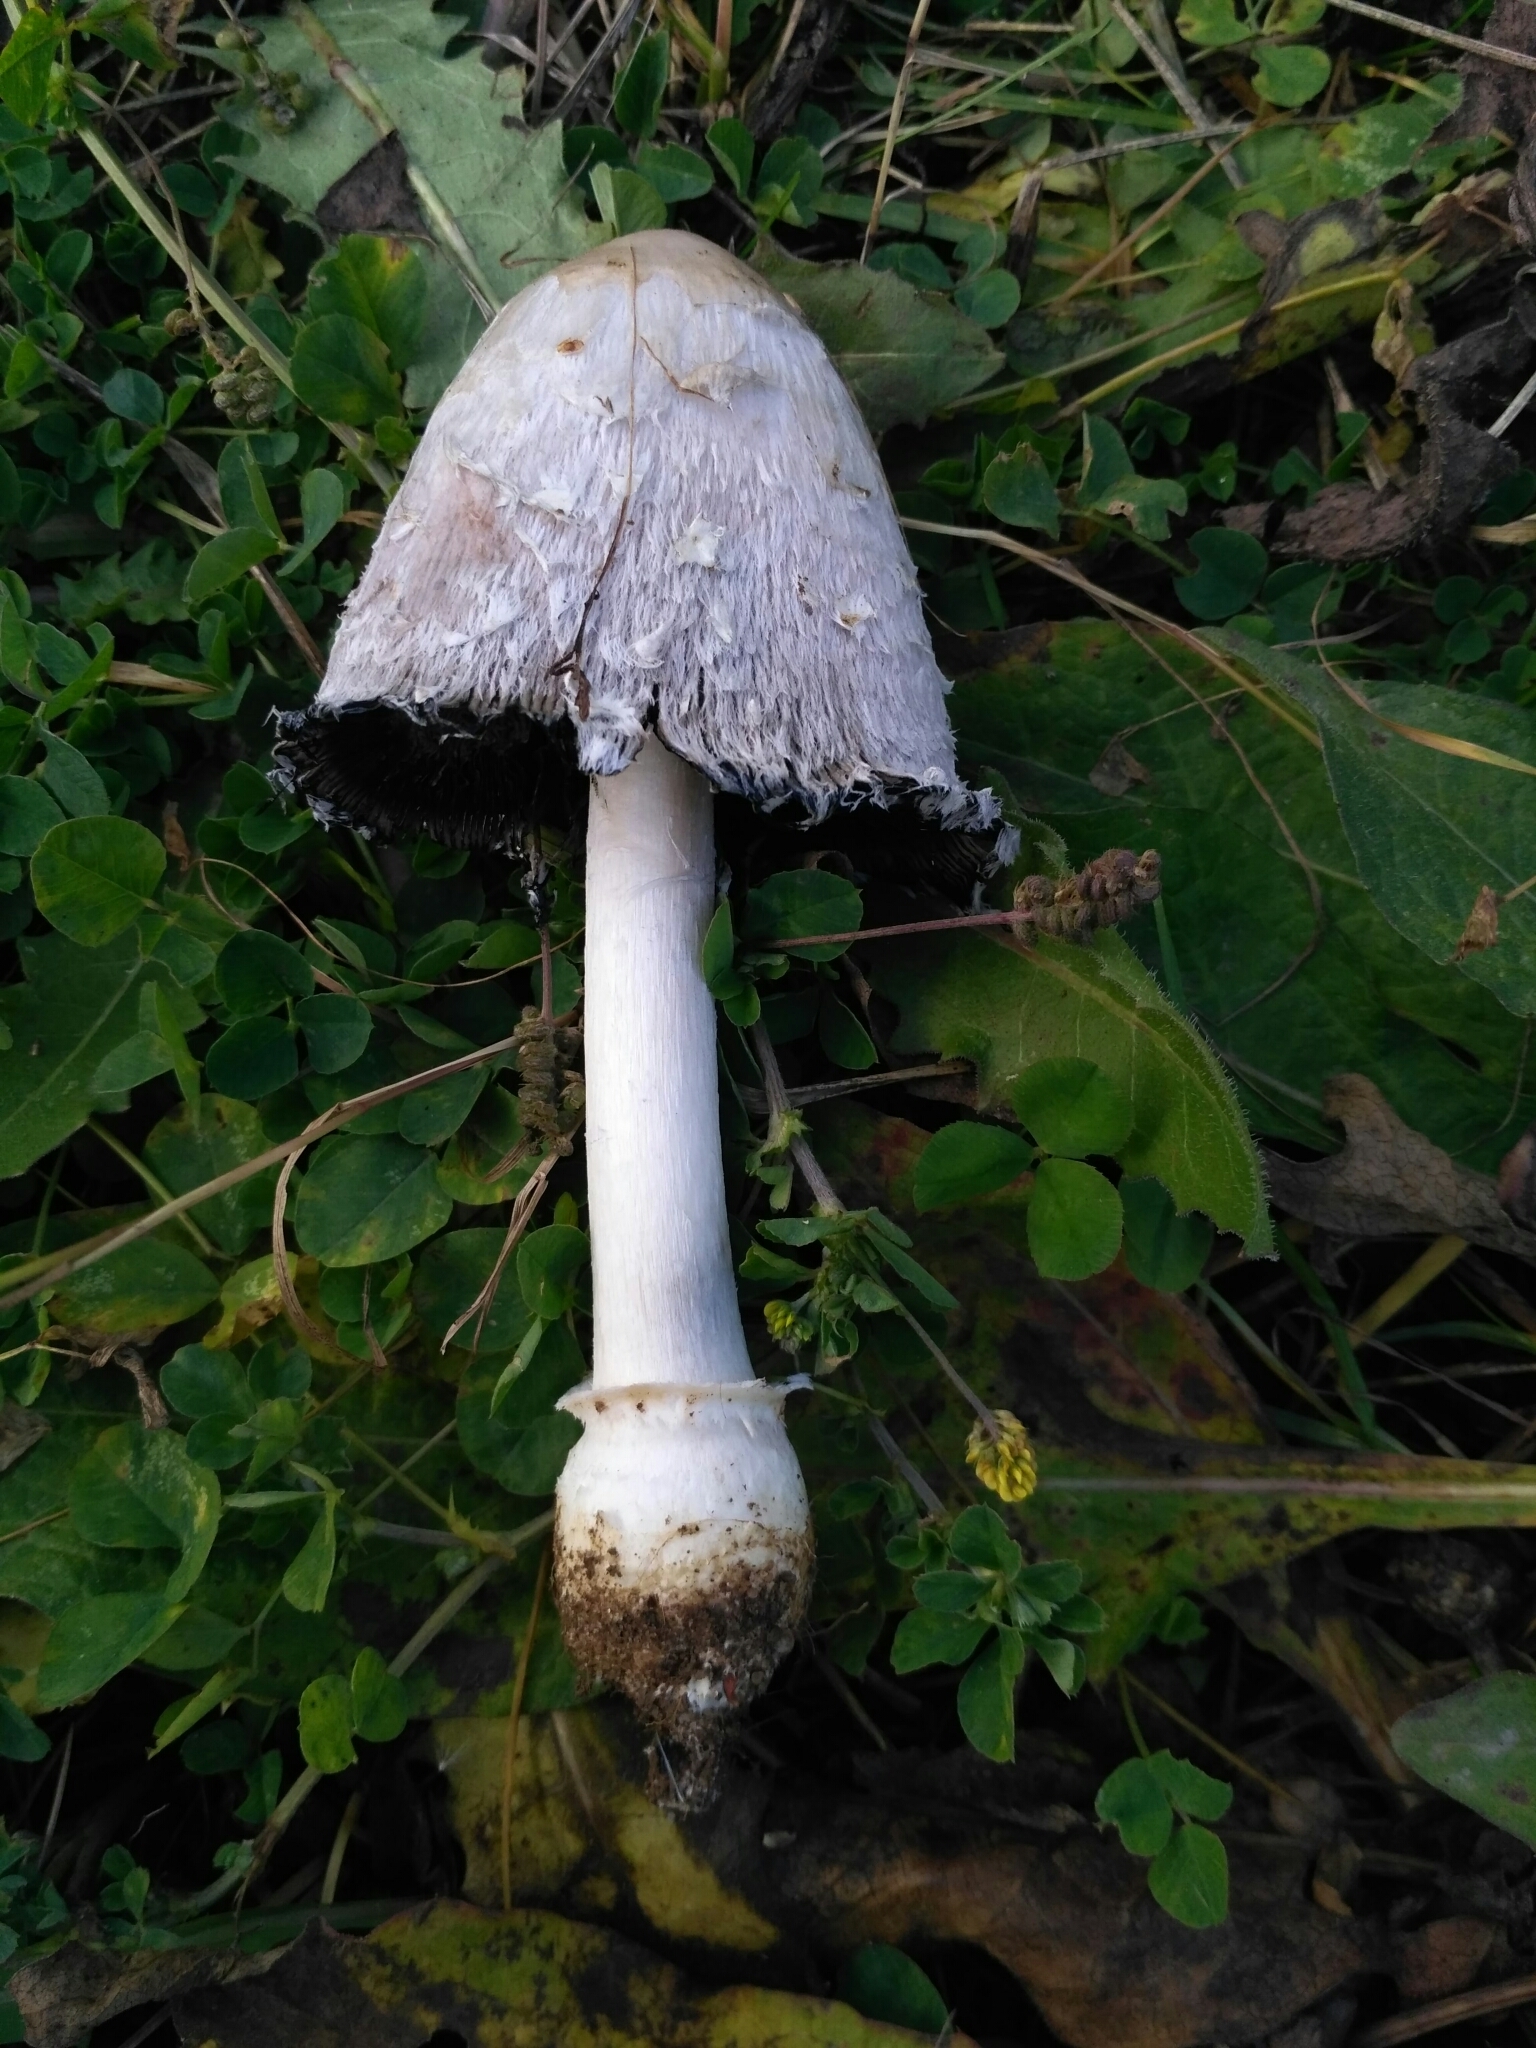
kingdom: Fungi
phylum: Basidiomycota
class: Agaricomycetes
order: Agaricales
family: Agaricaceae
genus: Coprinus
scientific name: Coprinus comatus
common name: Lawyer's wig
